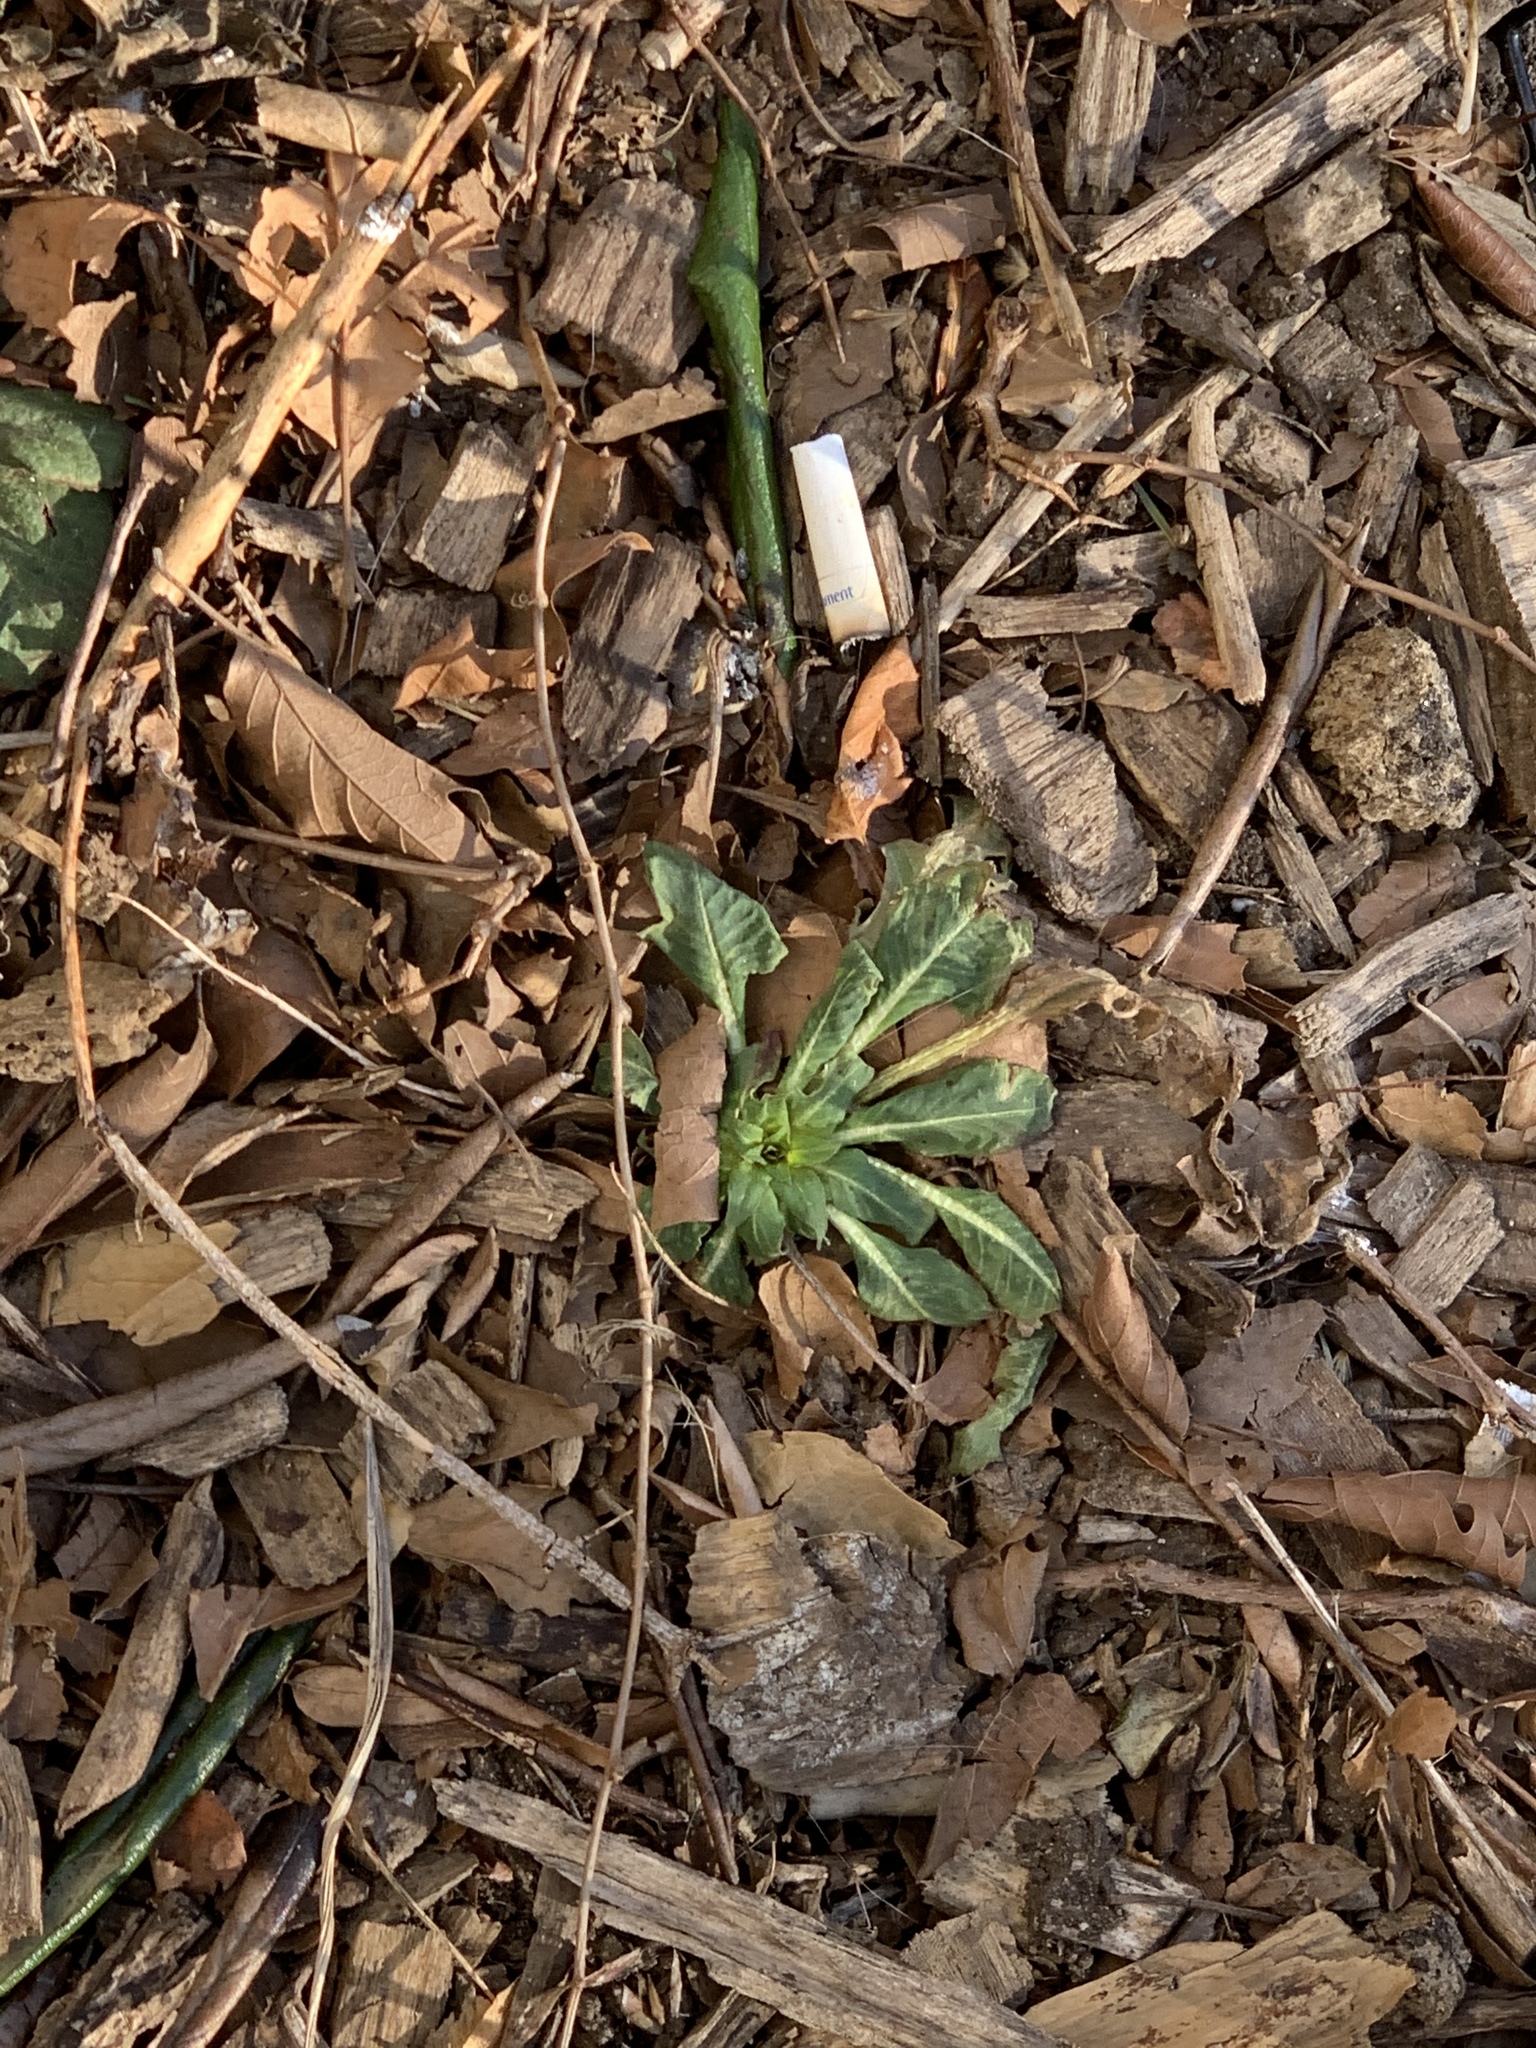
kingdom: Plantae
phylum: Tracheophyta
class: Magnoliopsida
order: Myrtales
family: Onagraceae
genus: Oenothera
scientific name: Oenothera biennis
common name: Common evening-primrose
